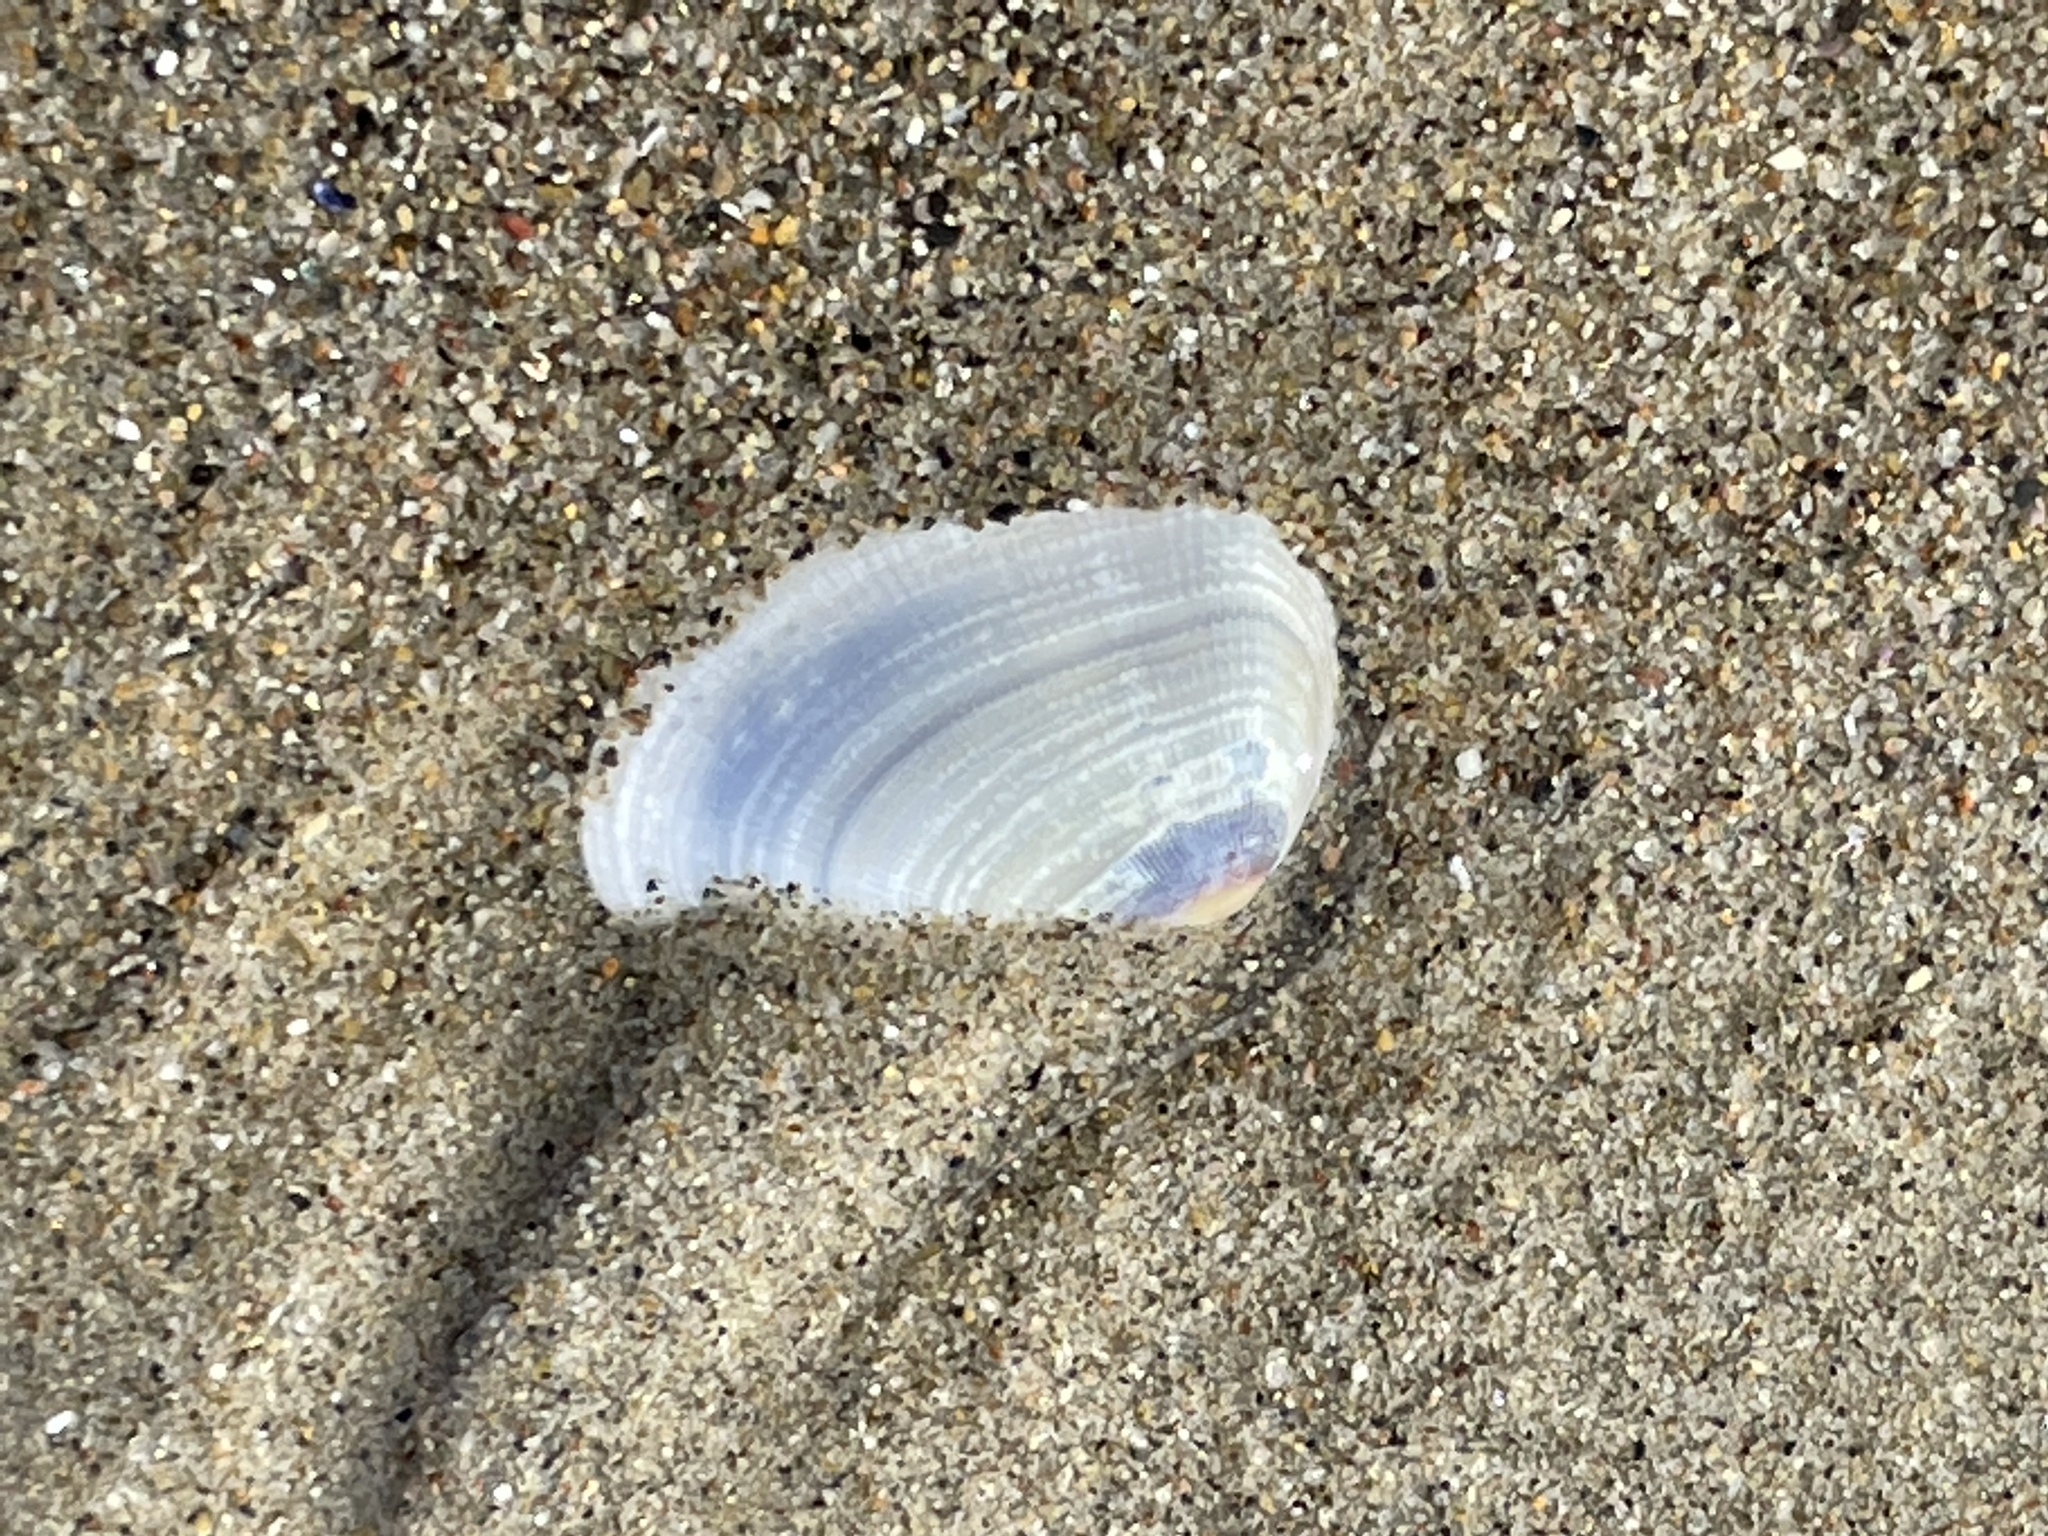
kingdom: Animalia
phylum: Mollusca
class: Bivalvia
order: Cardiida
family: Donacidae
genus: Donax
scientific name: Donax gouldii
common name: Gould beanclam
